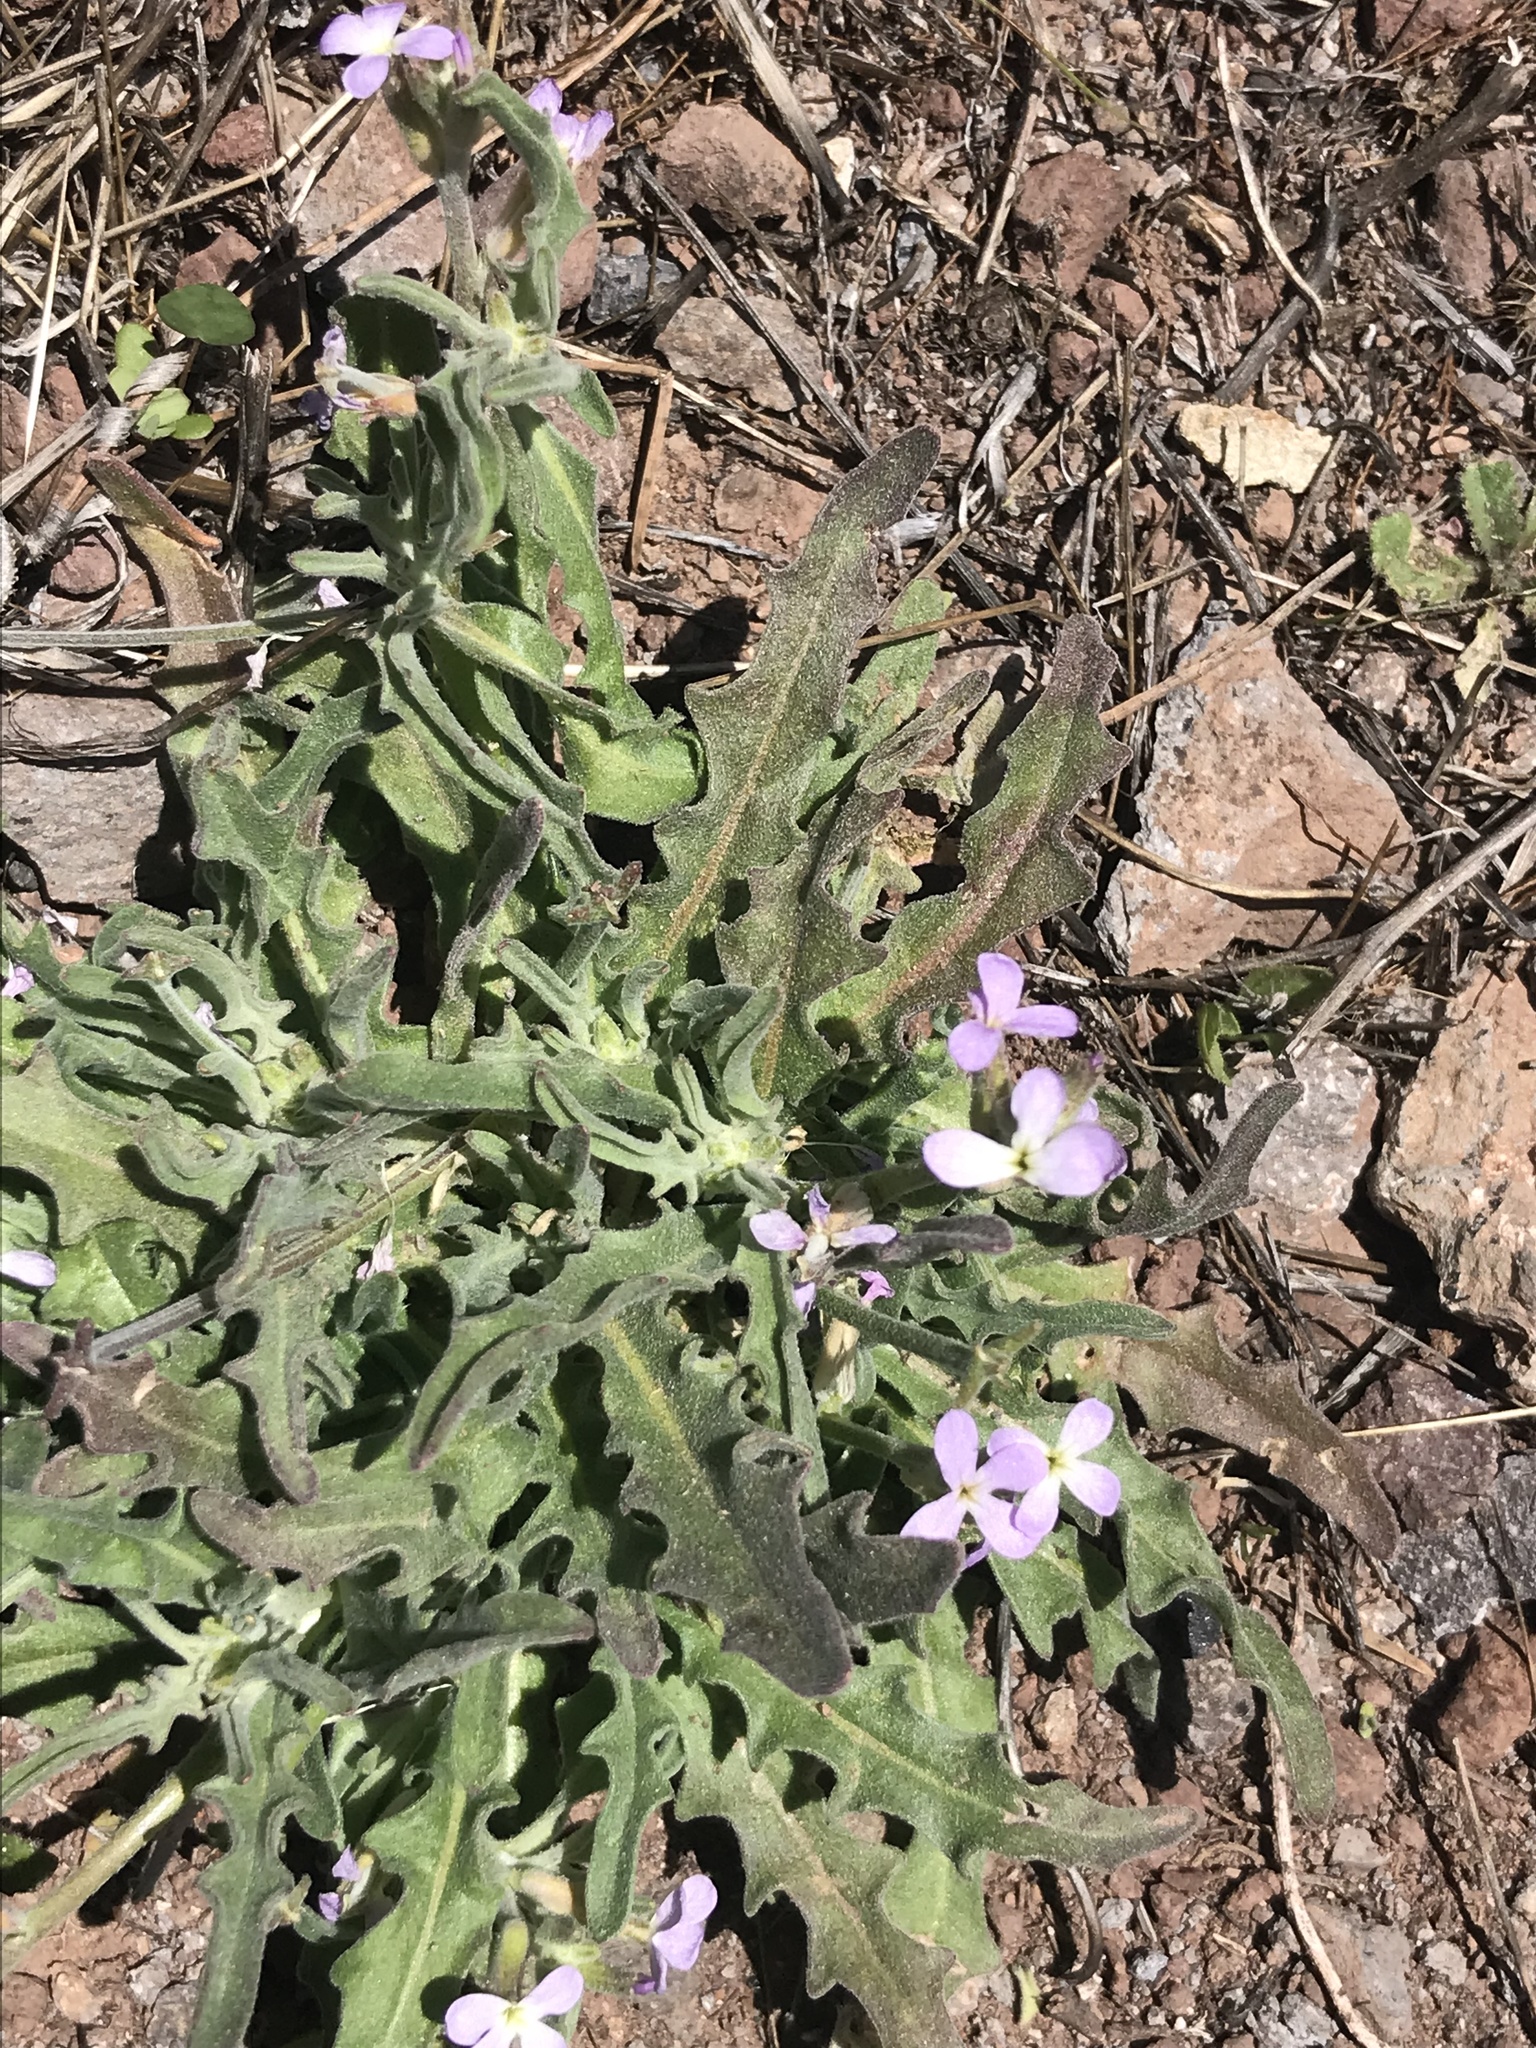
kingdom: Plantae
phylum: Tracheophyta
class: Magnoliopsida
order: Brassicales
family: Brassicaceae
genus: Matthiola
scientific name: Matthiola parviflora
